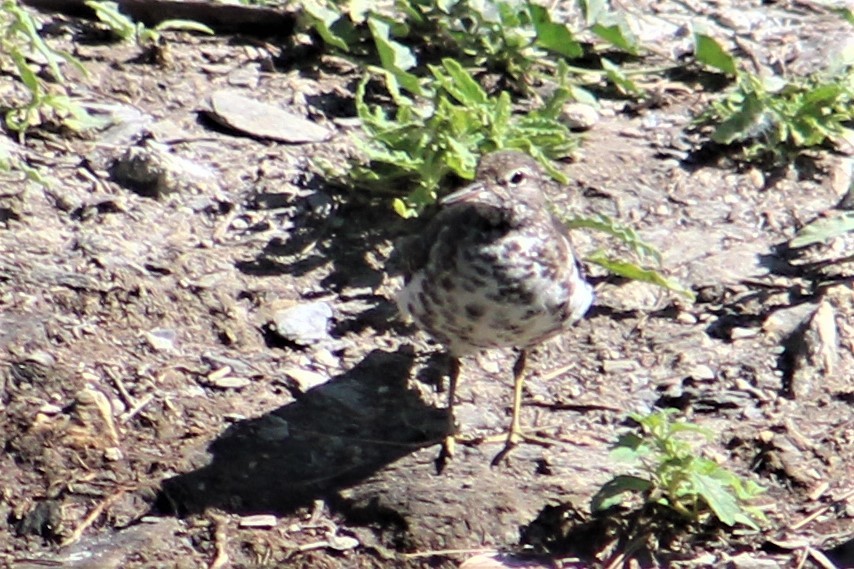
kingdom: Animalia
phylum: Chordata
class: Aves
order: Charadriiformes
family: Scolopacidae
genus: Actitis
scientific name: Actitis macularius
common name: Spotted sandpiper
